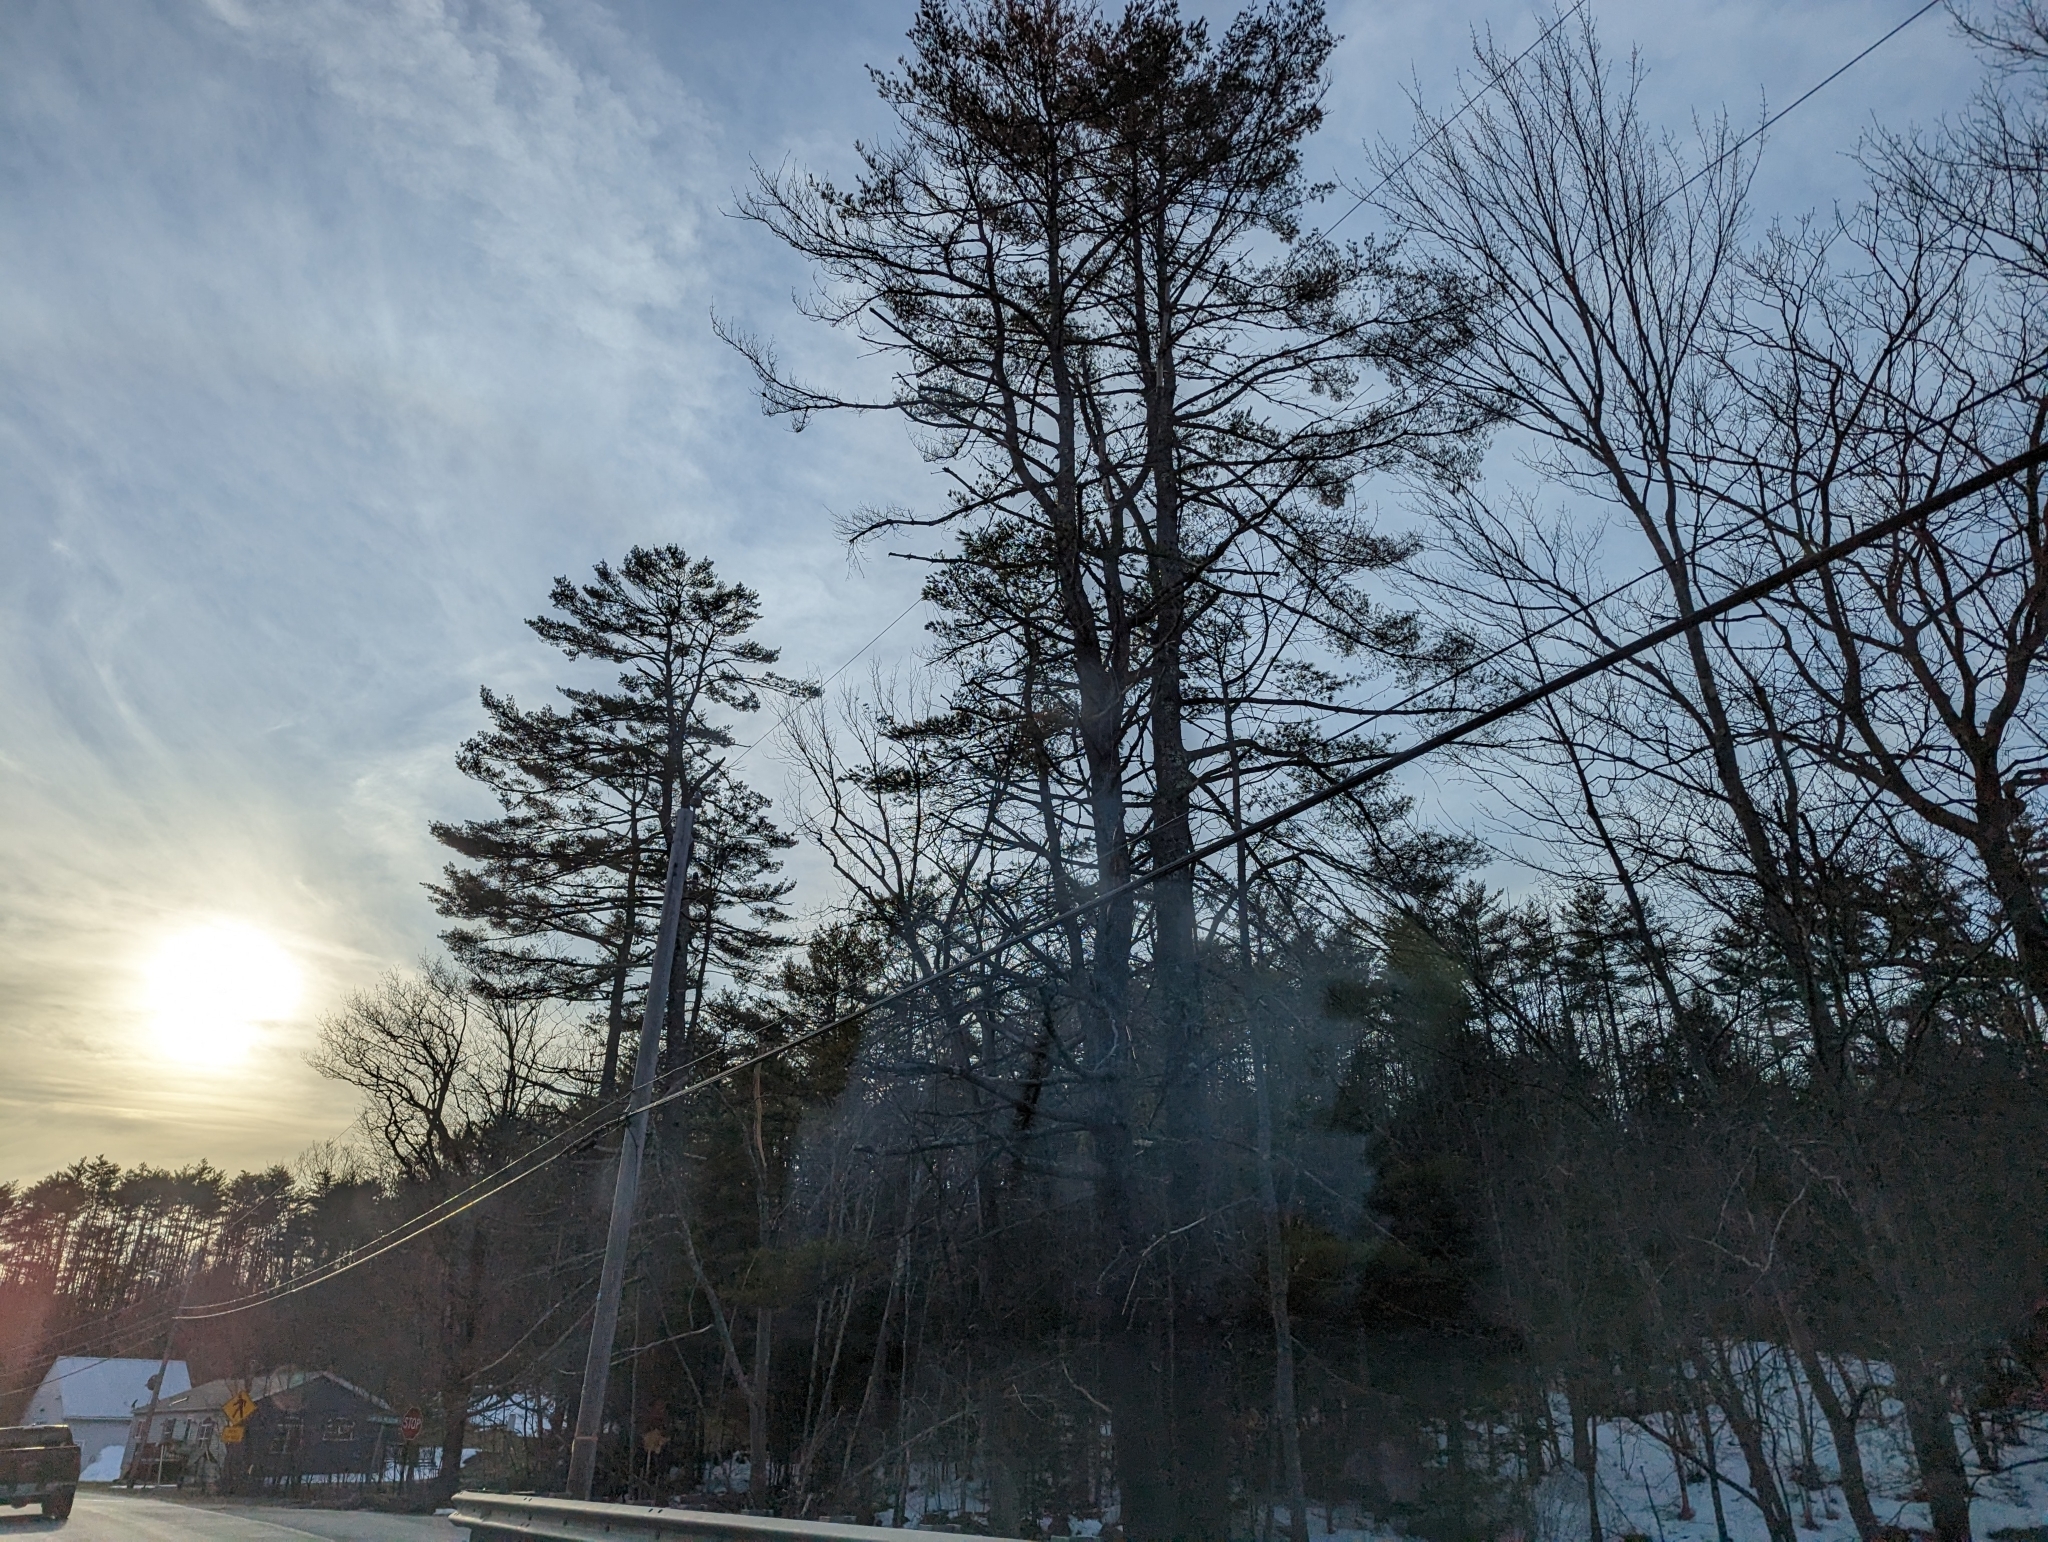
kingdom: Plantae
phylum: Tracheophyta
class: Pinopsida
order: Pinales
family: Pinaceae
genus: Pinus
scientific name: Pinus strobus
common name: Weymouth pine
